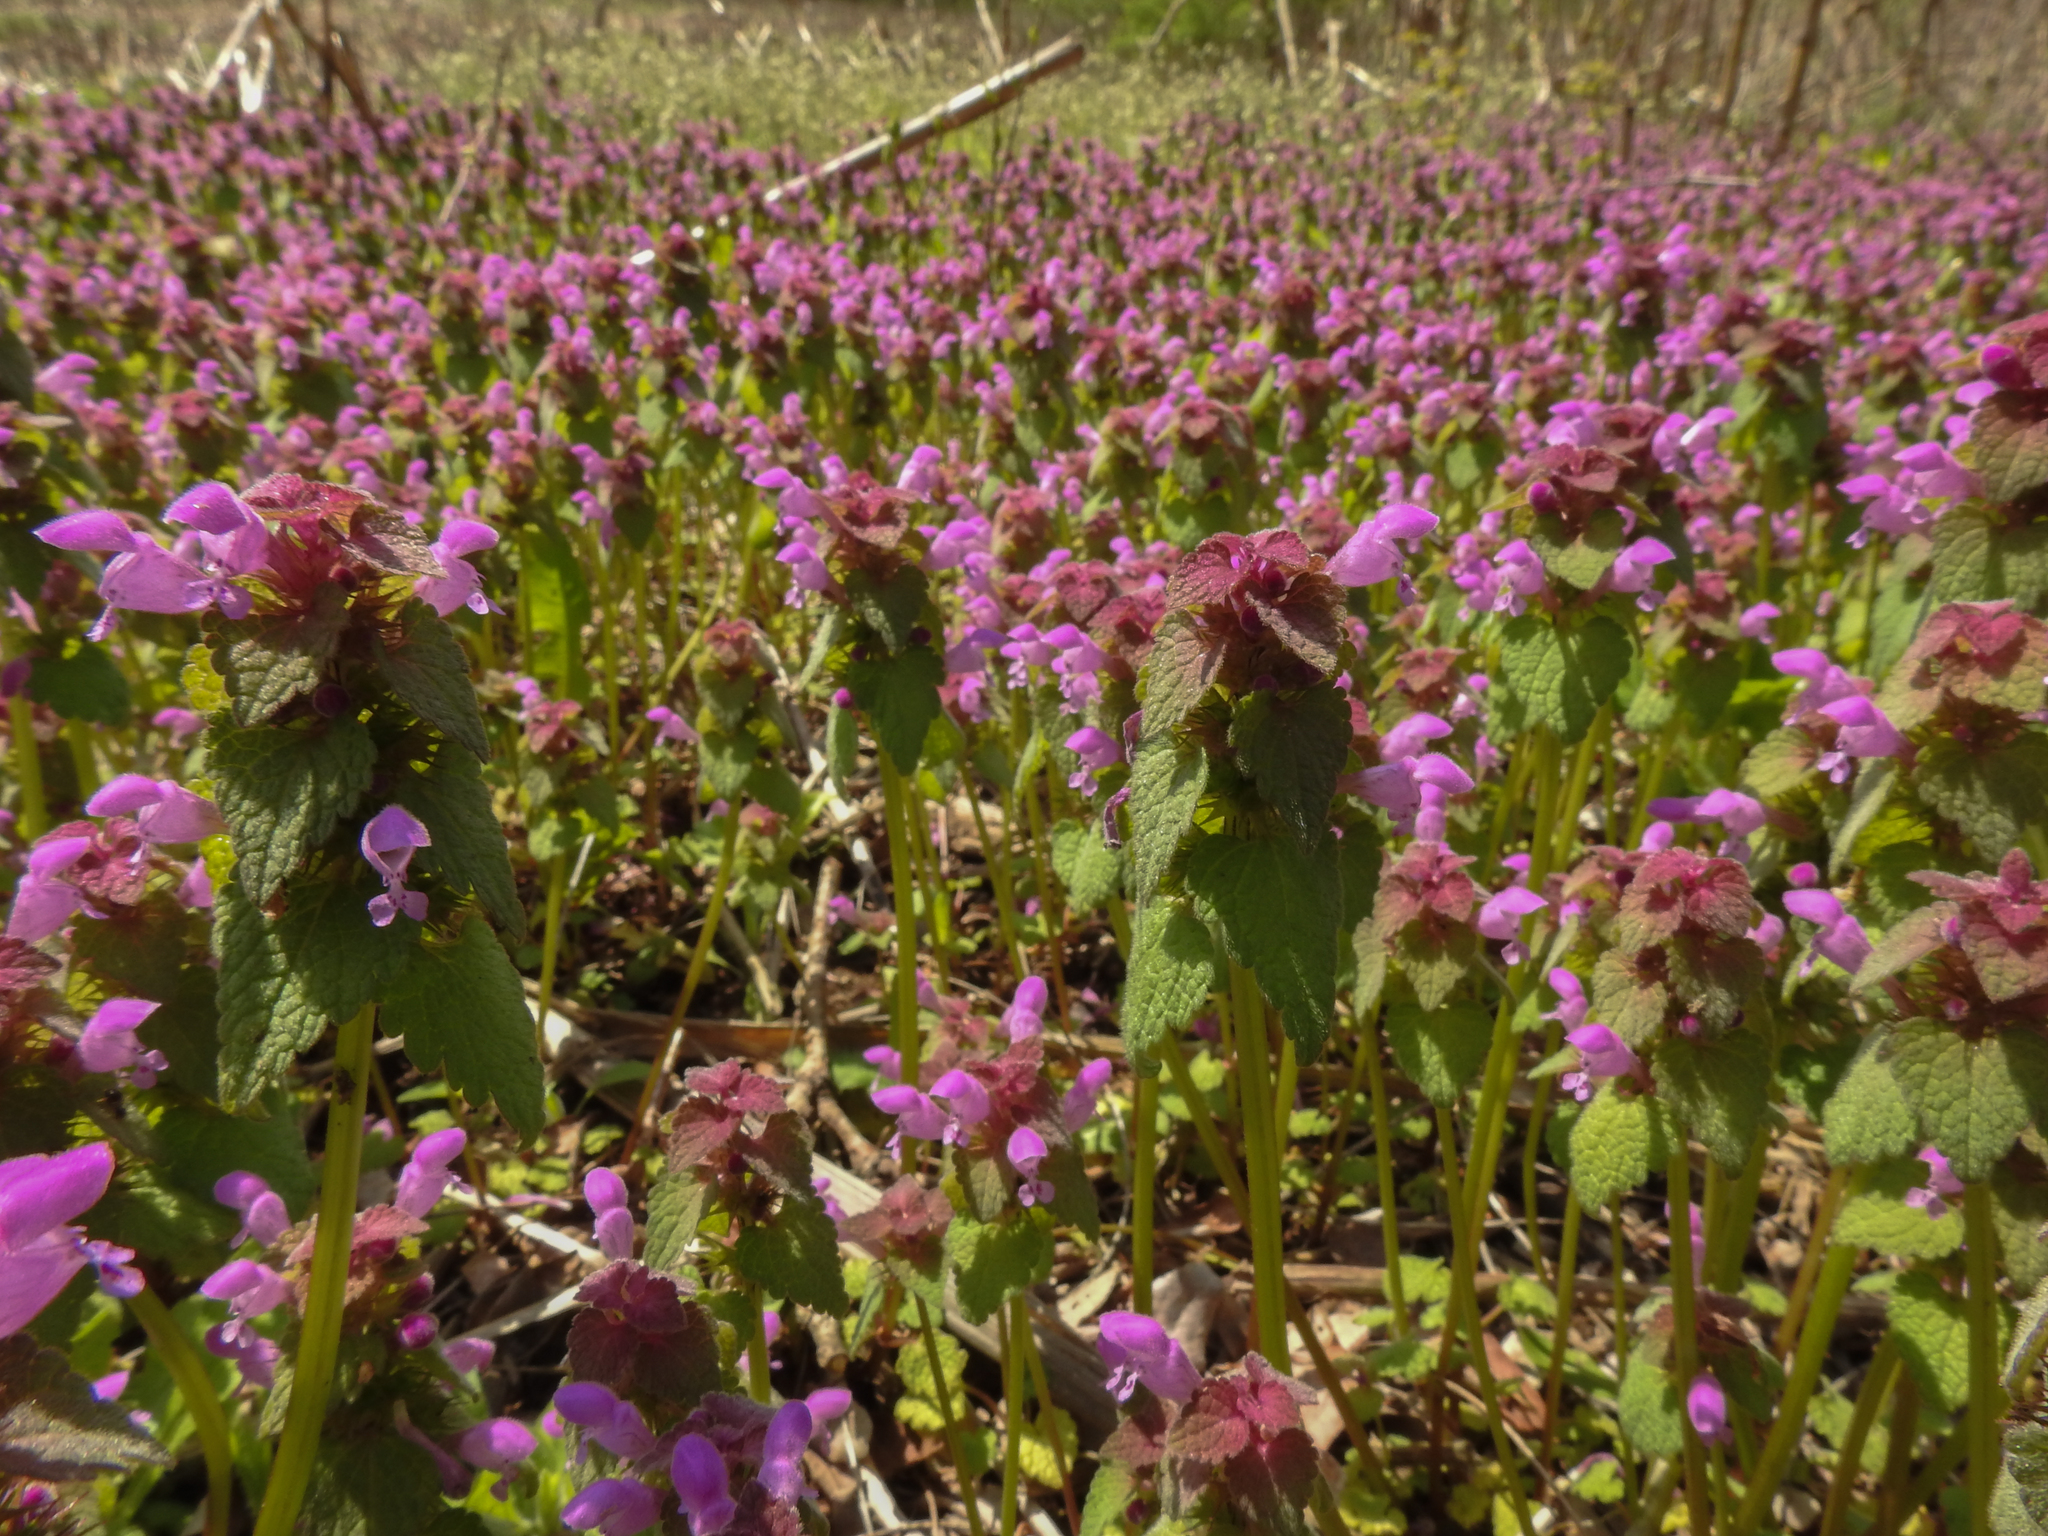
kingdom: Plantae
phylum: Tracheophyta
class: Magnoliopsida
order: Lamiales
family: Lamiaceae
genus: Lamium
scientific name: Lamium purpureum
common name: Red dead-nettle
